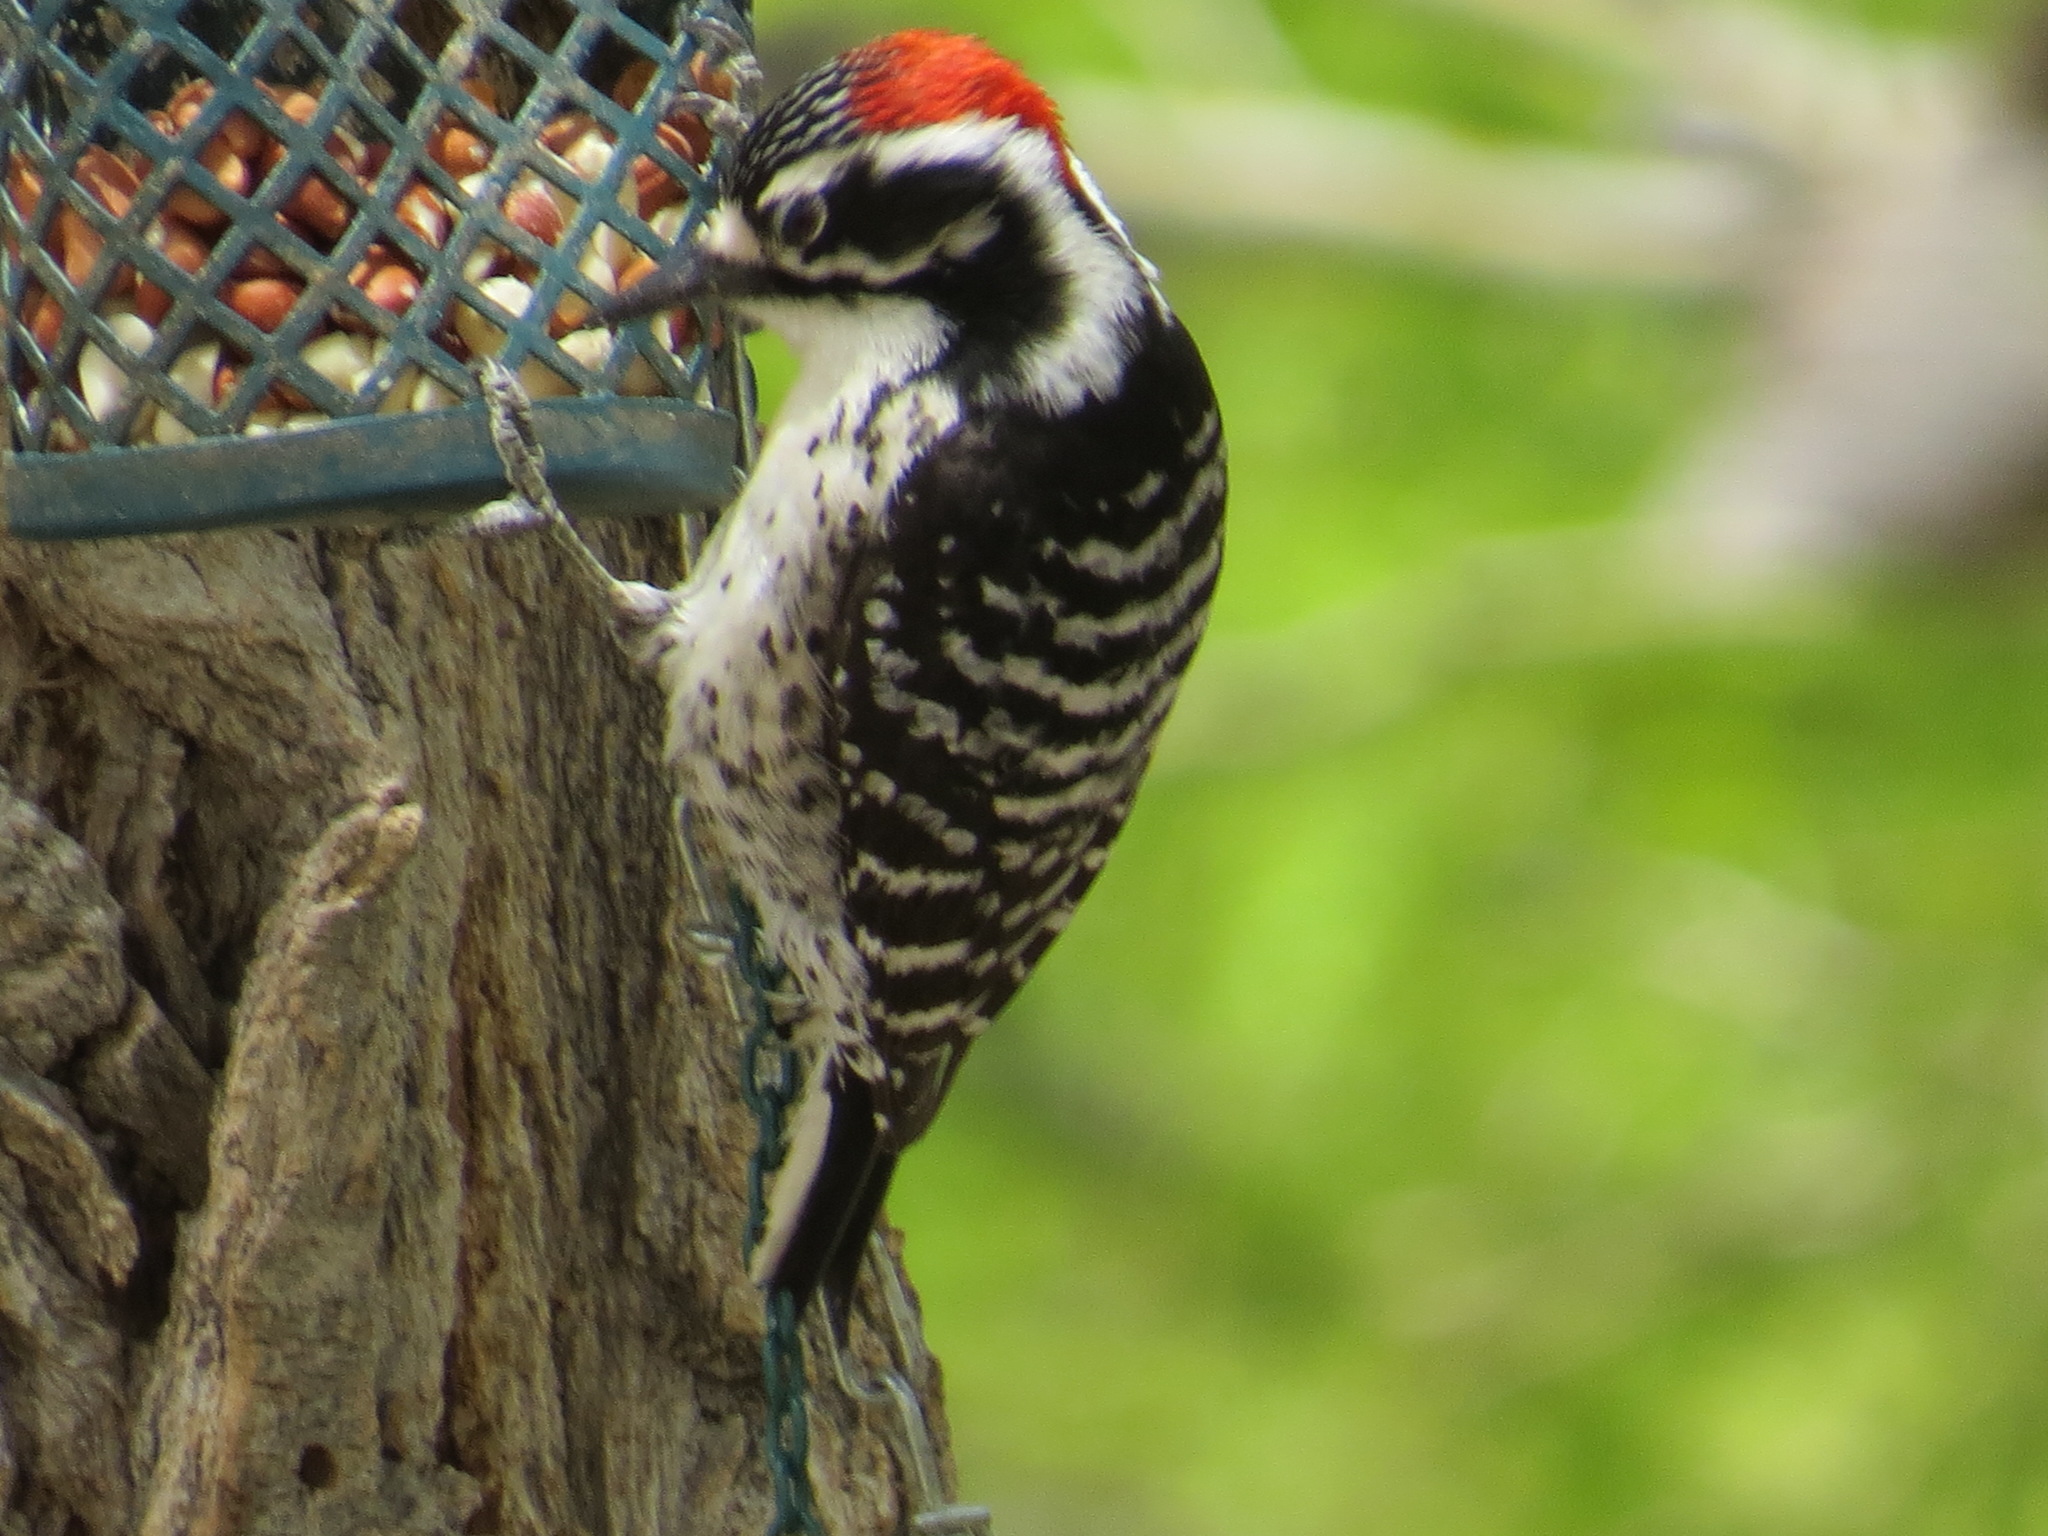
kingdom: Animalia
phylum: Chordata
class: Aves
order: Piciformes
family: Picidae
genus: Dryobates
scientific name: Dryobates nuttallii
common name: Nuttall's woodpecker
